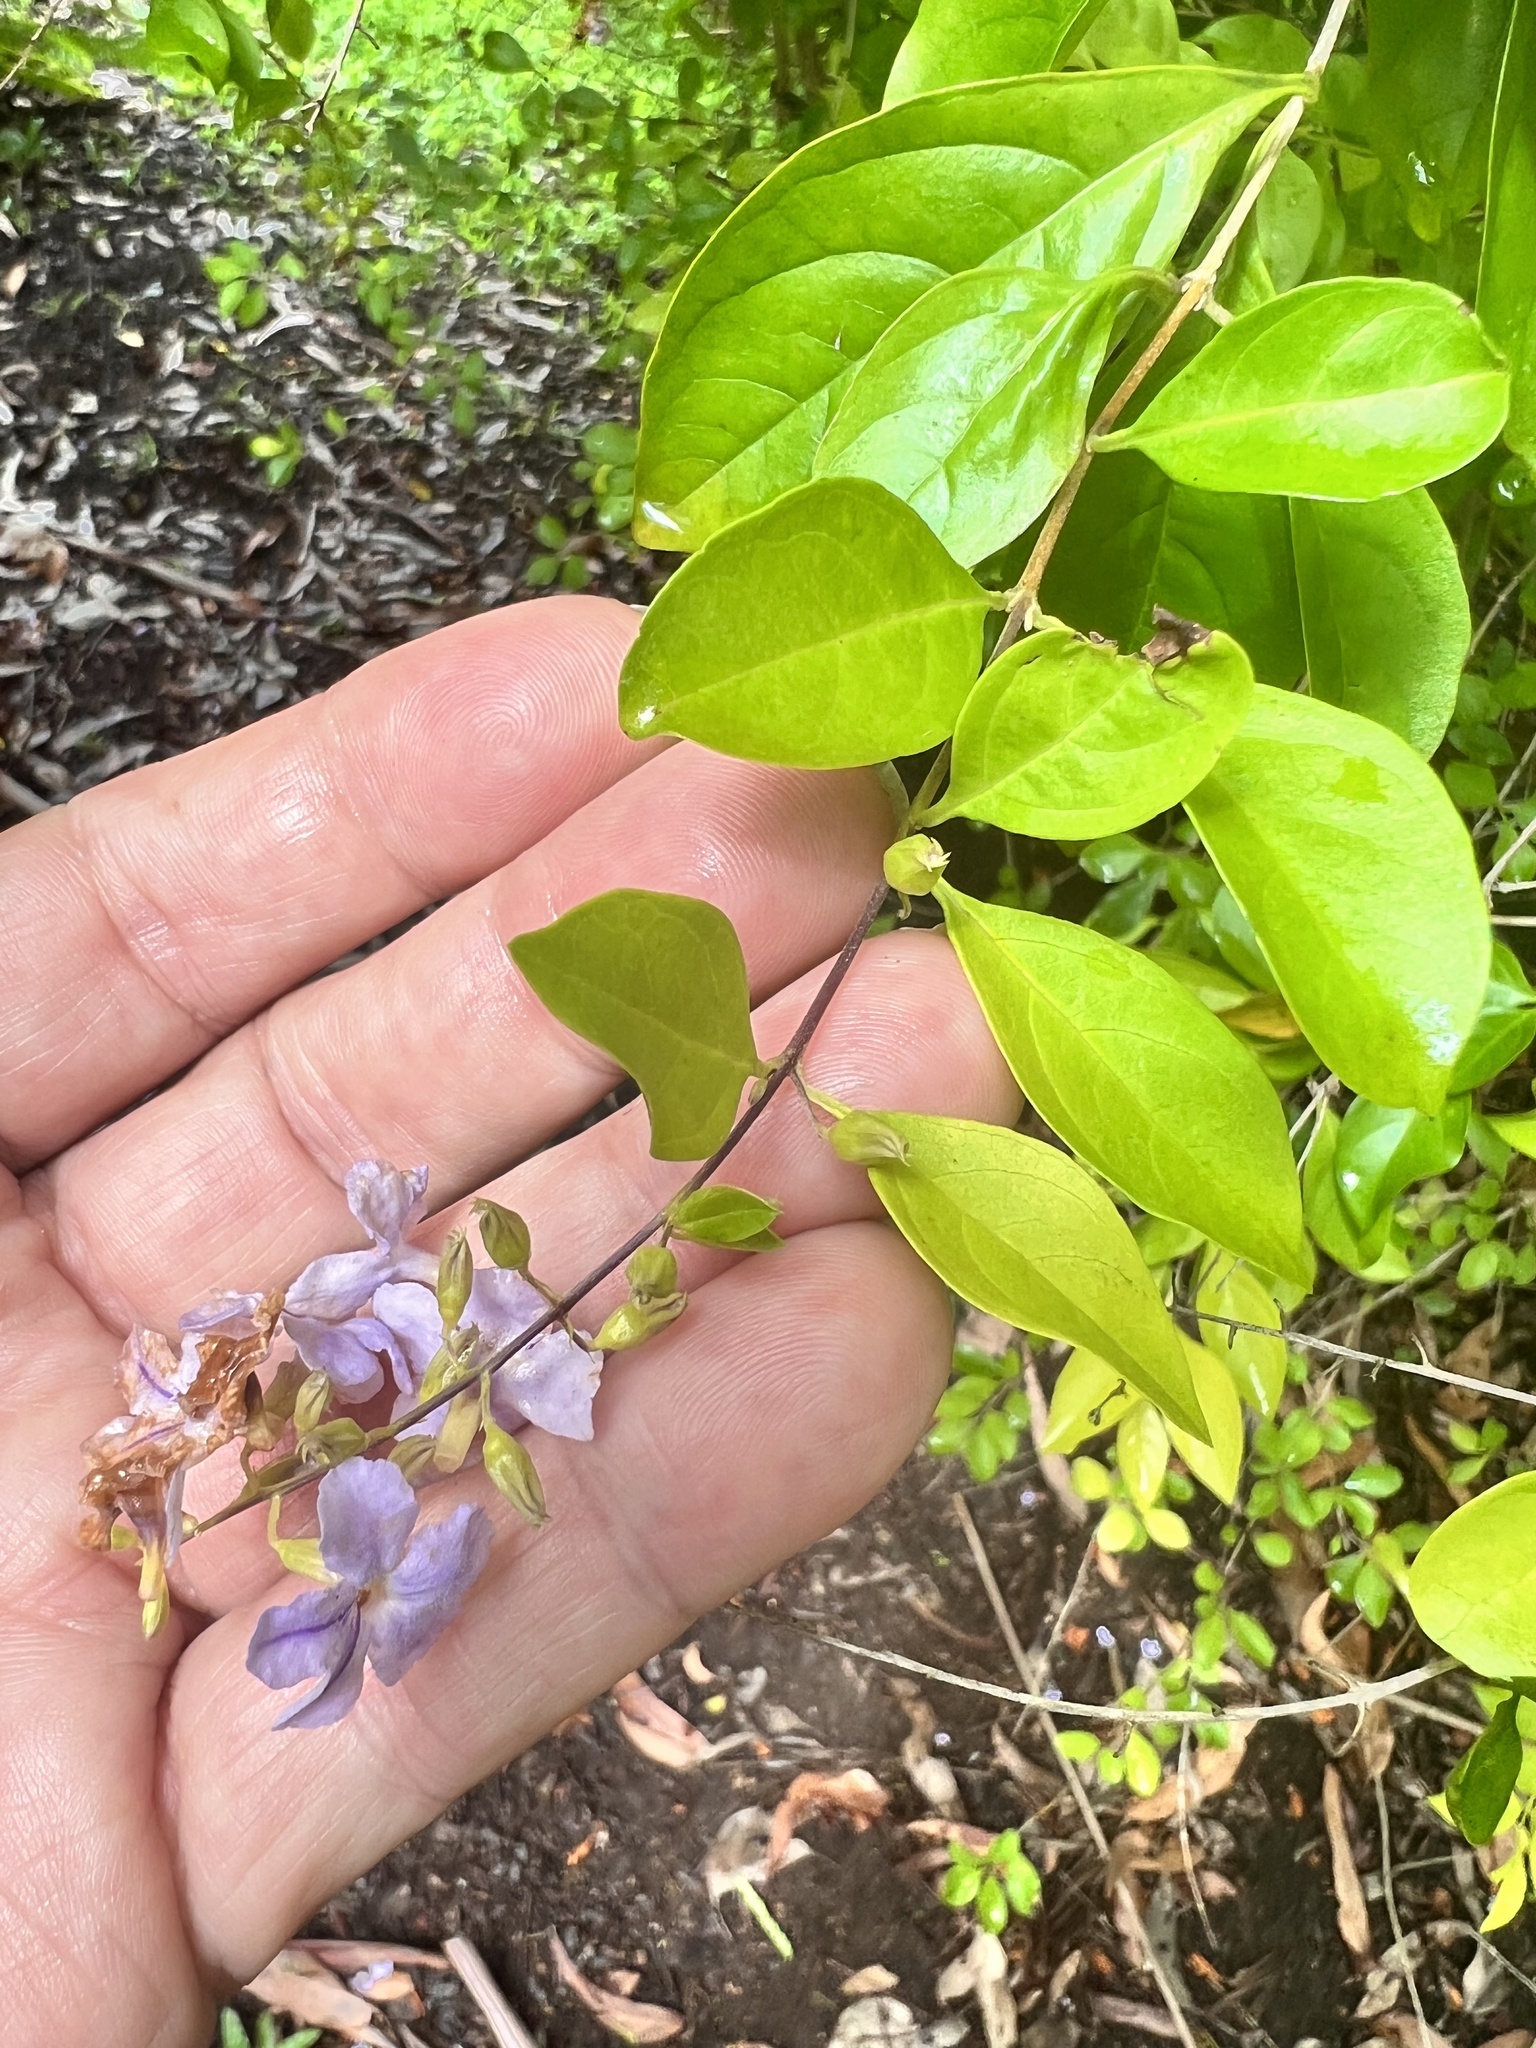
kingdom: Plantae
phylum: Tracheophyta
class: Magnoliopsida
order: Lamiales
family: Verbenaceae
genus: Duranta
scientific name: Duranta erecta
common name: Golden dewdrops
